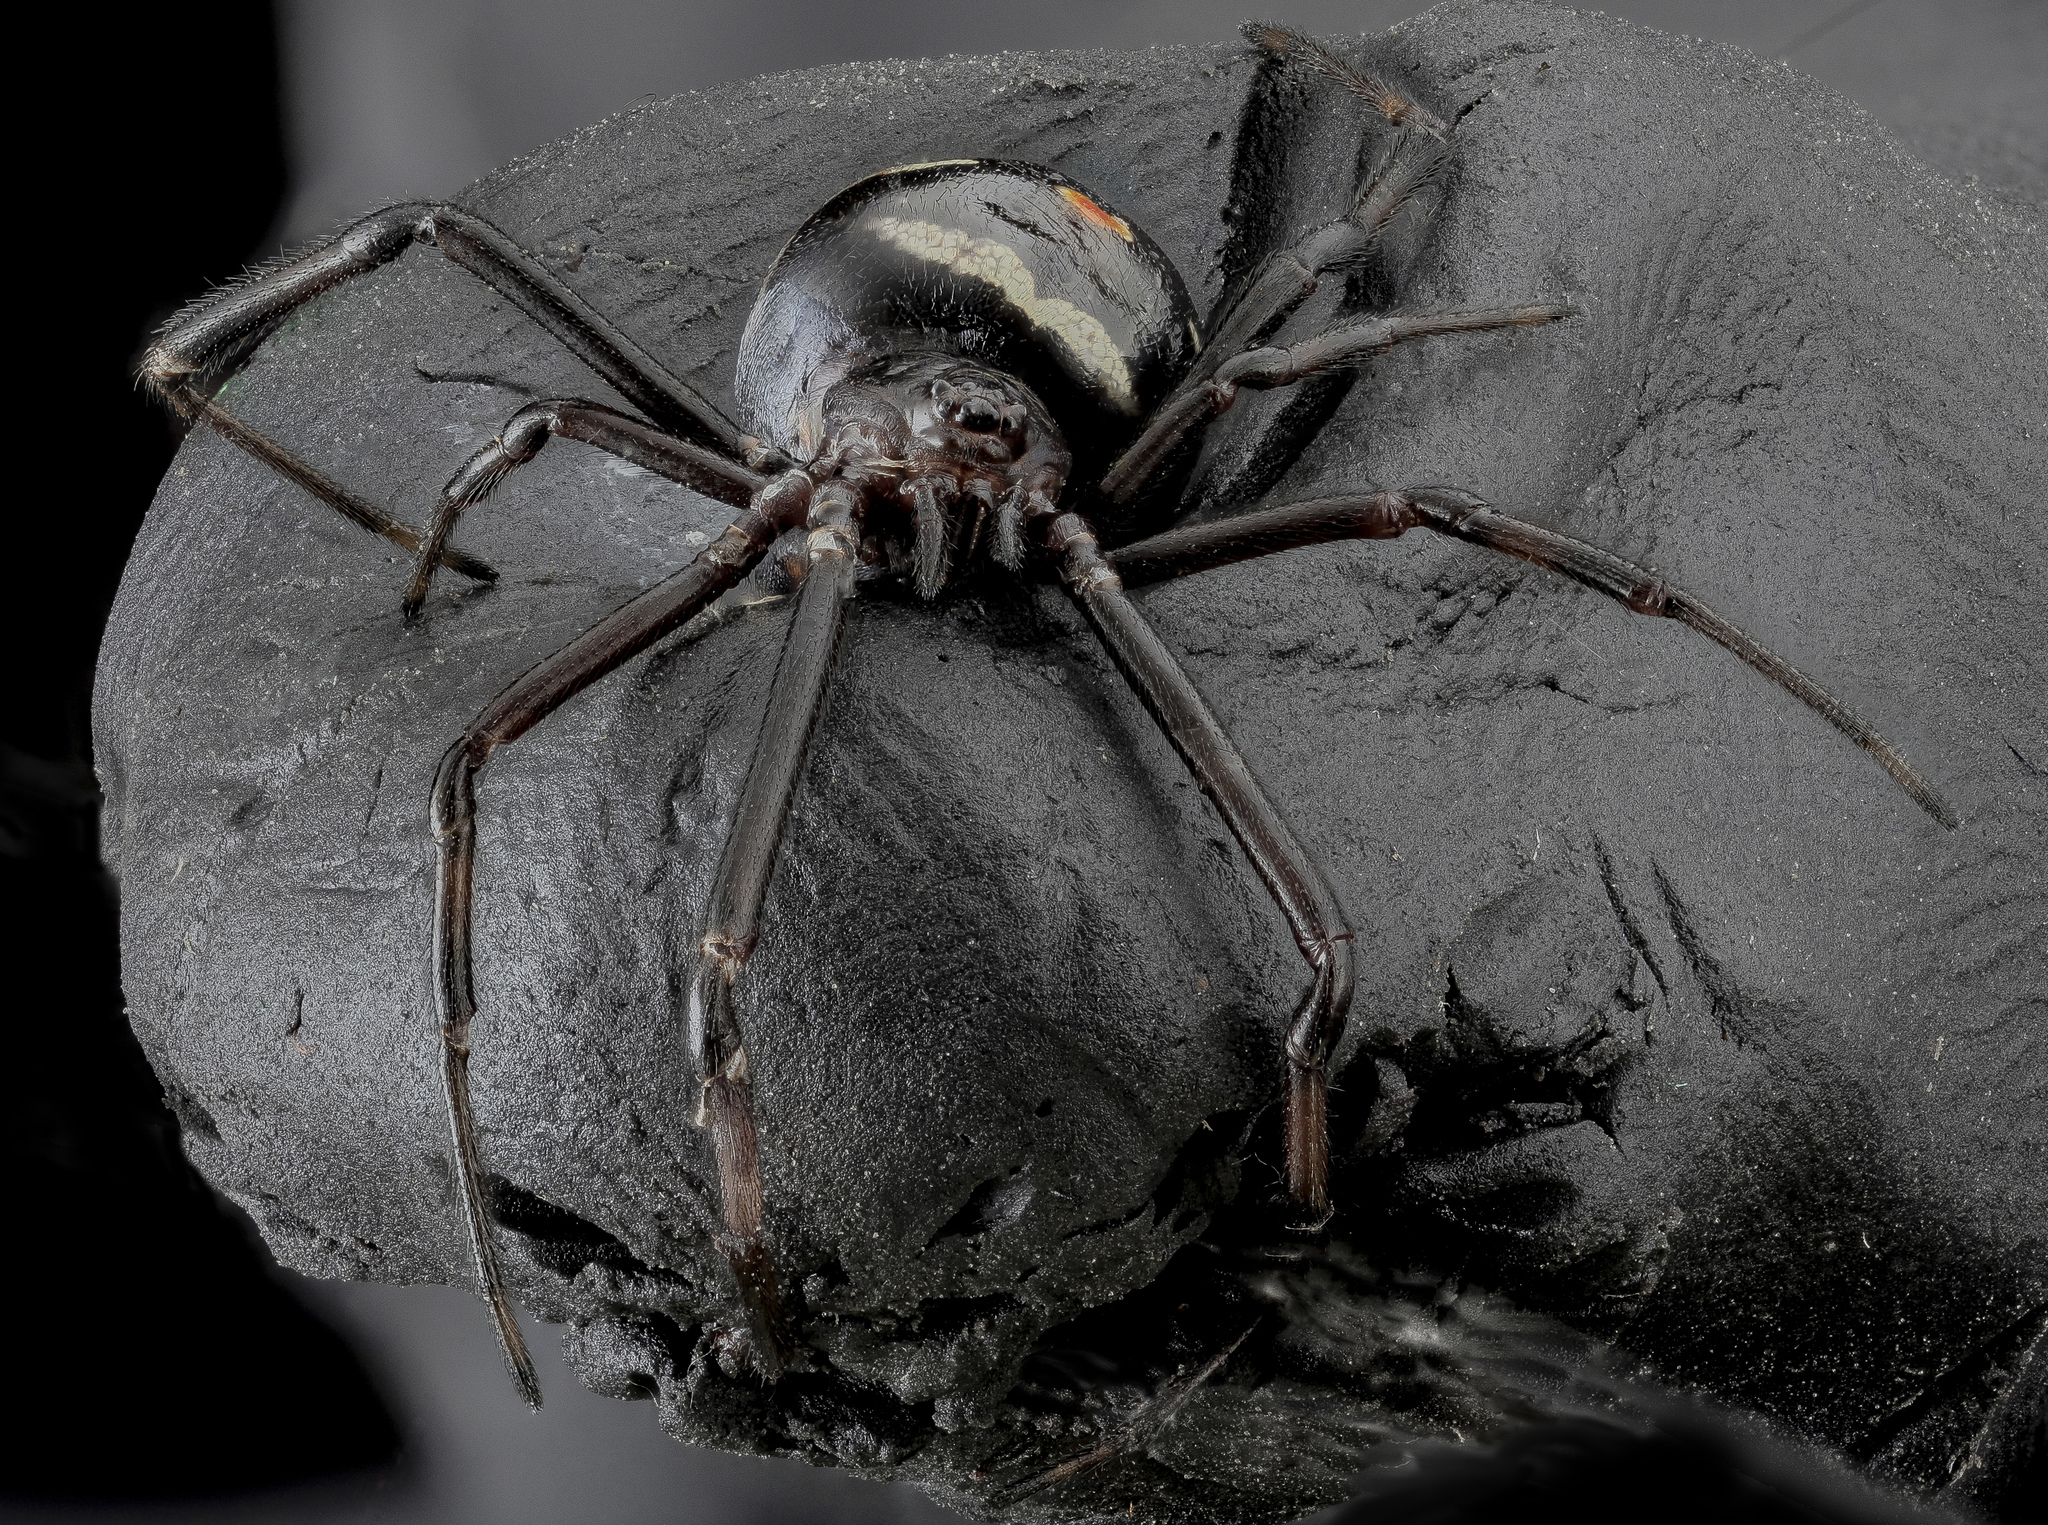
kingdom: Animalia
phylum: Arthropoda
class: Arachnida
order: Araneae
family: Theridiidae
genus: Latrodectus
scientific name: Latrodectus variolus
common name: Northern black widow
